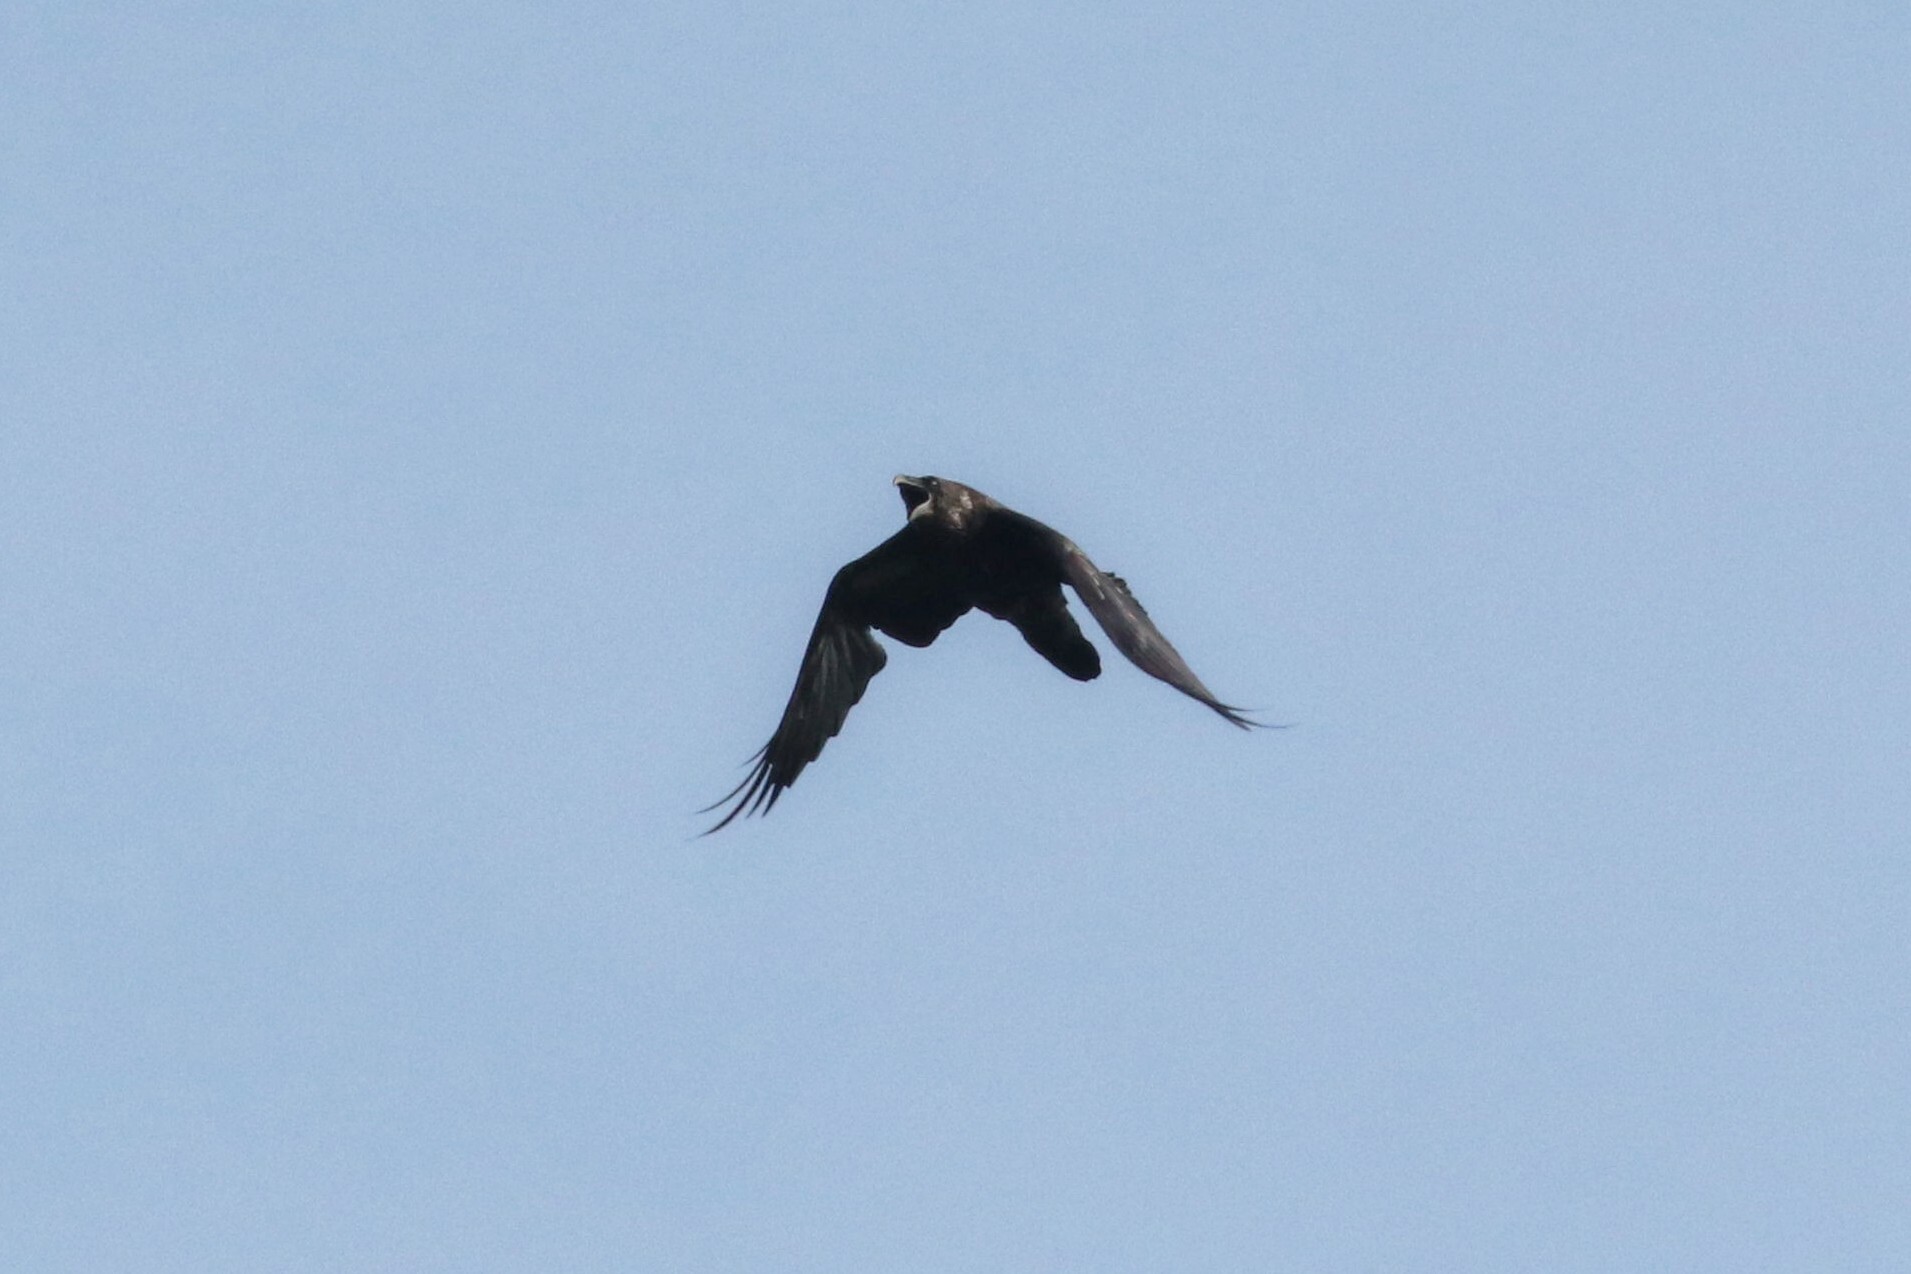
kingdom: Animalia
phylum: Chordata
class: Aves
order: Passeriformes
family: Corvidae
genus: Corvus
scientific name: Corvus corax
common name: Common raven
